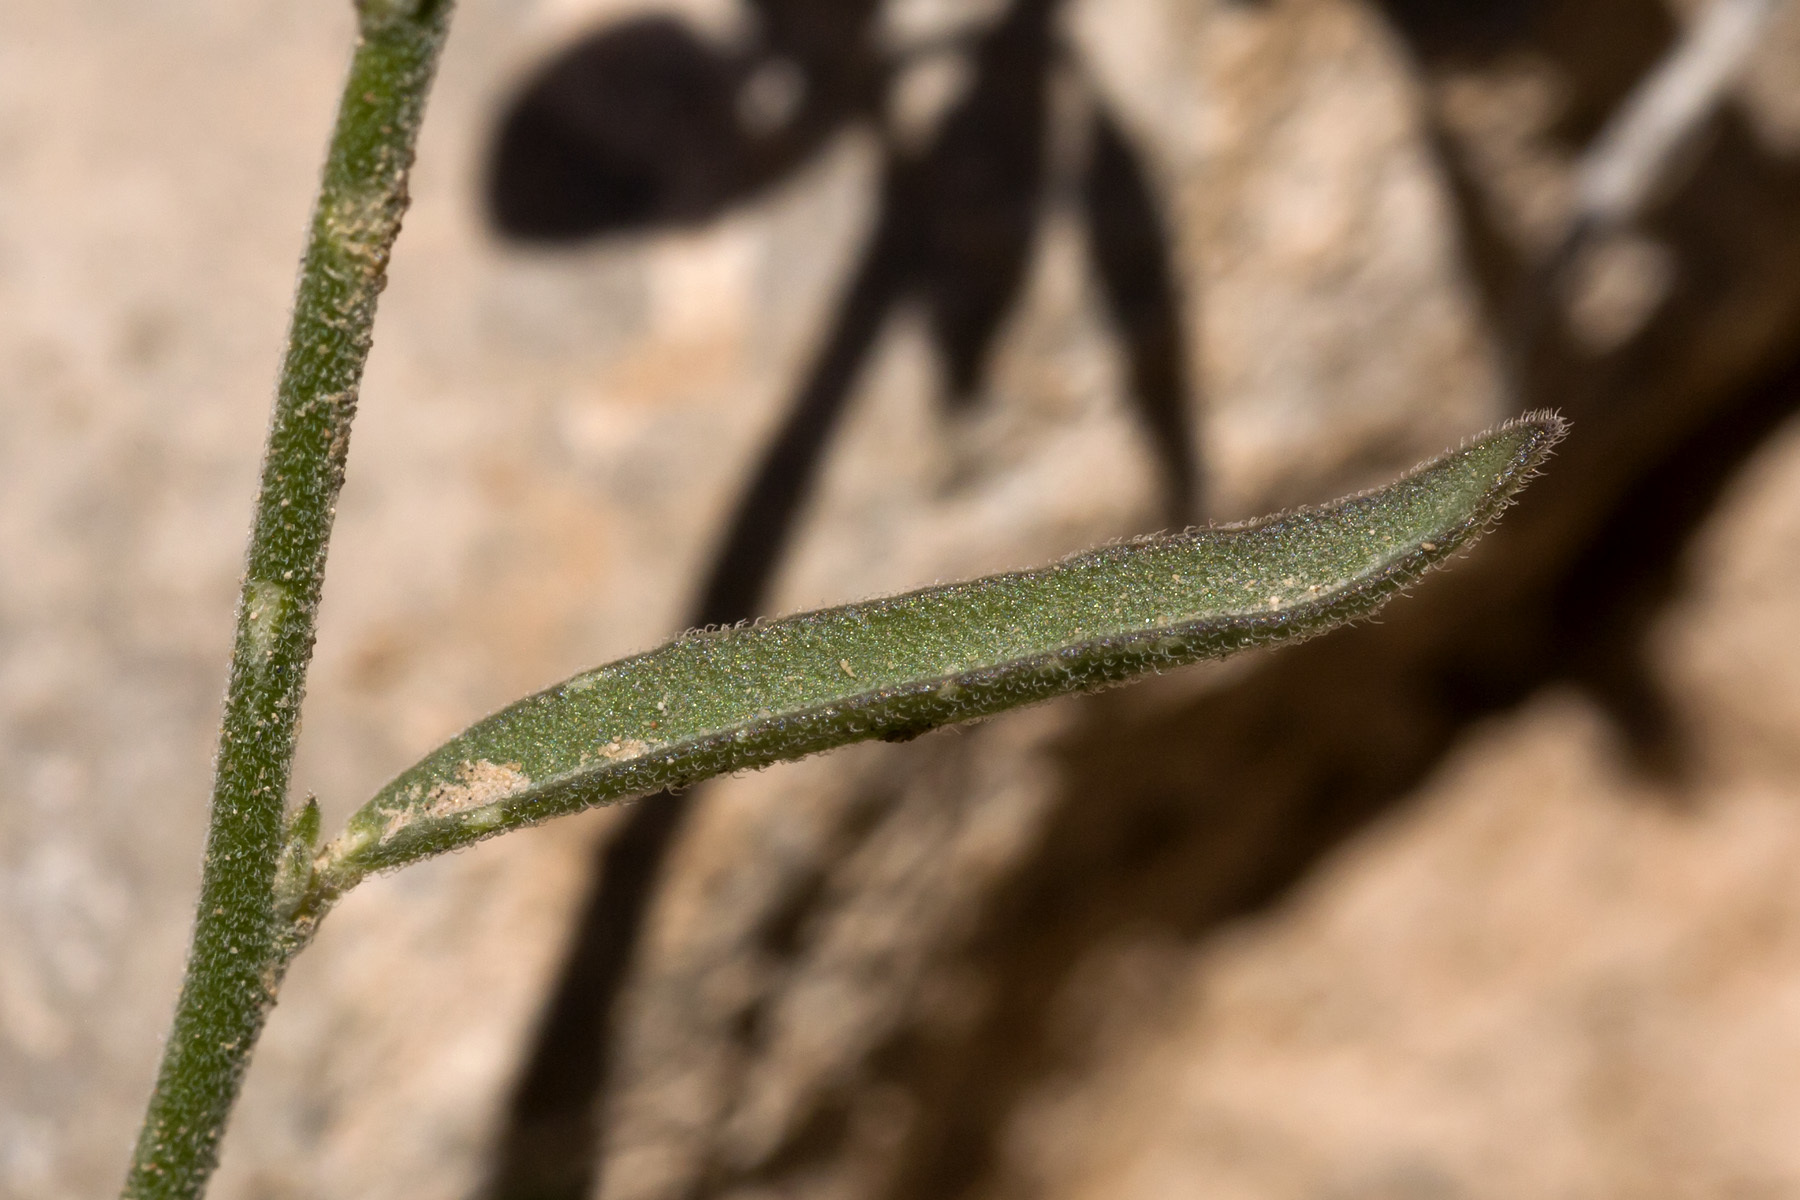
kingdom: Plantae
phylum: Tracheophyta
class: Magnoliopsida
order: Fabales
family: Polygalaceae
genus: Hebecarpa
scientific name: Hebecarpa barbeyana
